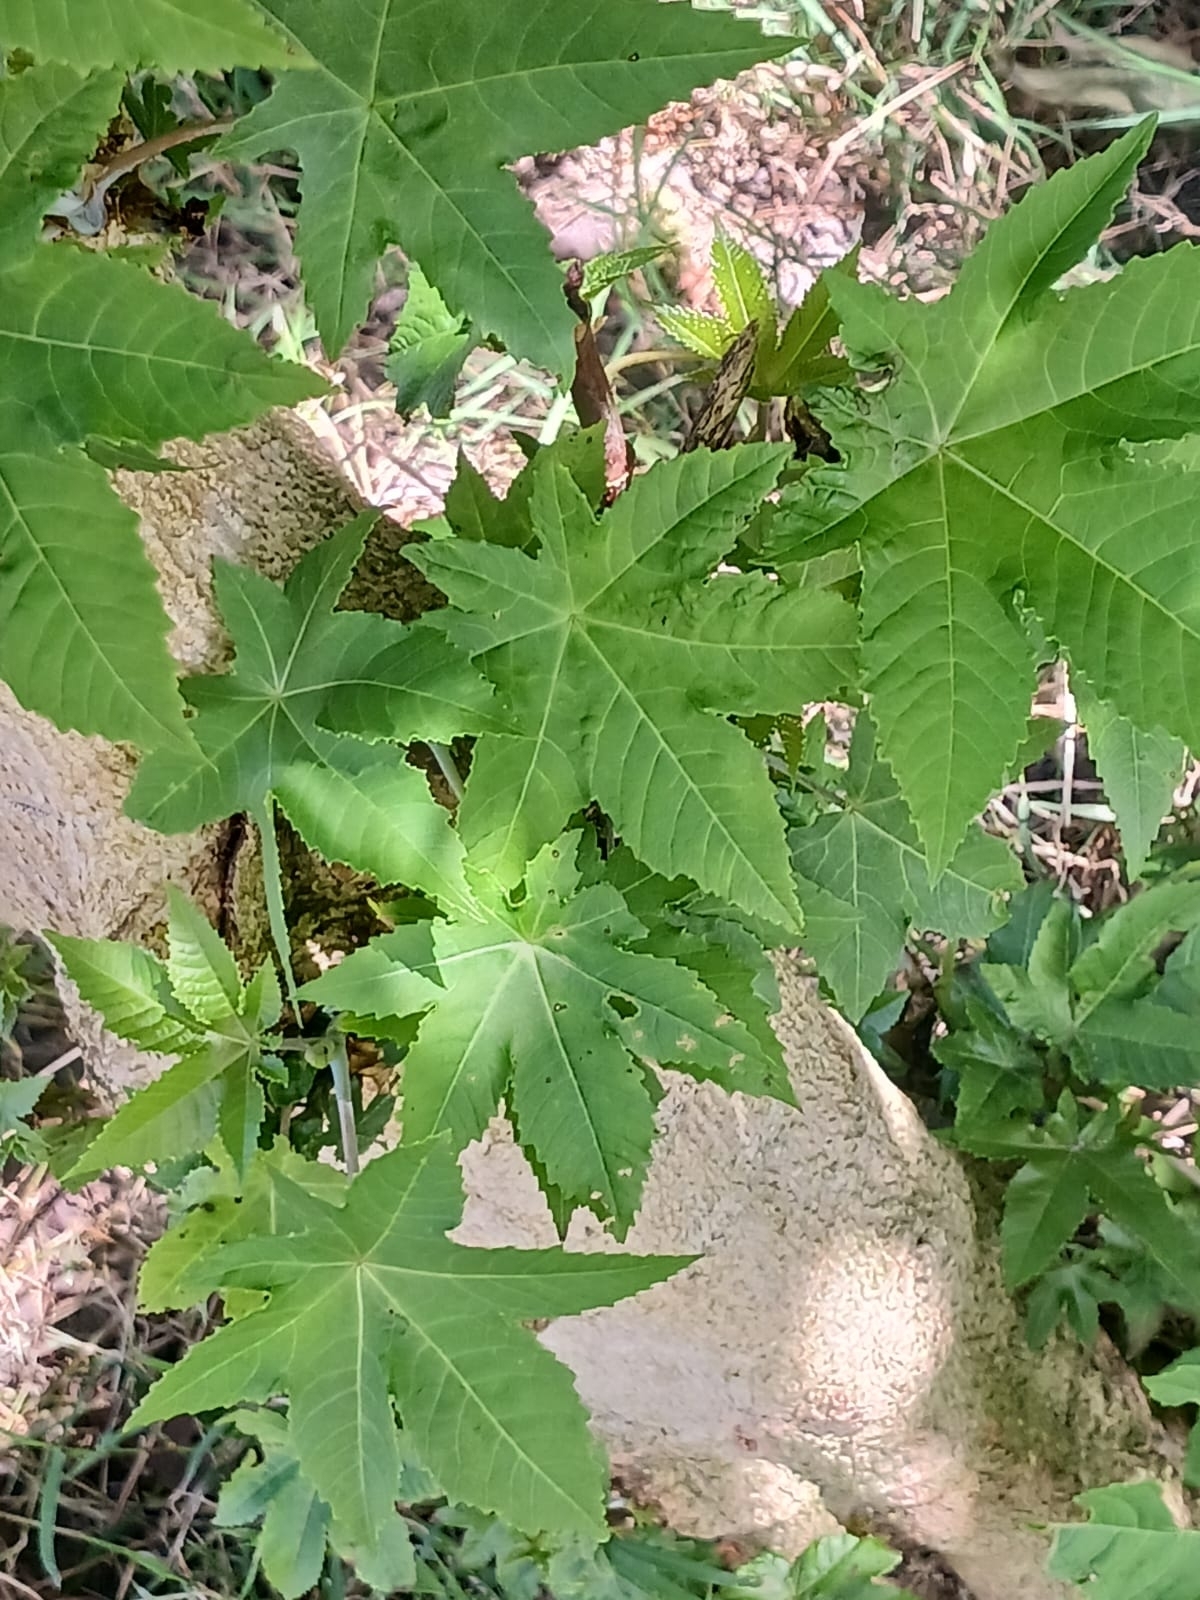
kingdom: Plantae
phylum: Tracheophyta
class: Magnoliopsida
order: Malpighiales
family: Euphorbiaceae
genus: Ricinus
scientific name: Ricinus communis
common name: Castor-oil-plant
